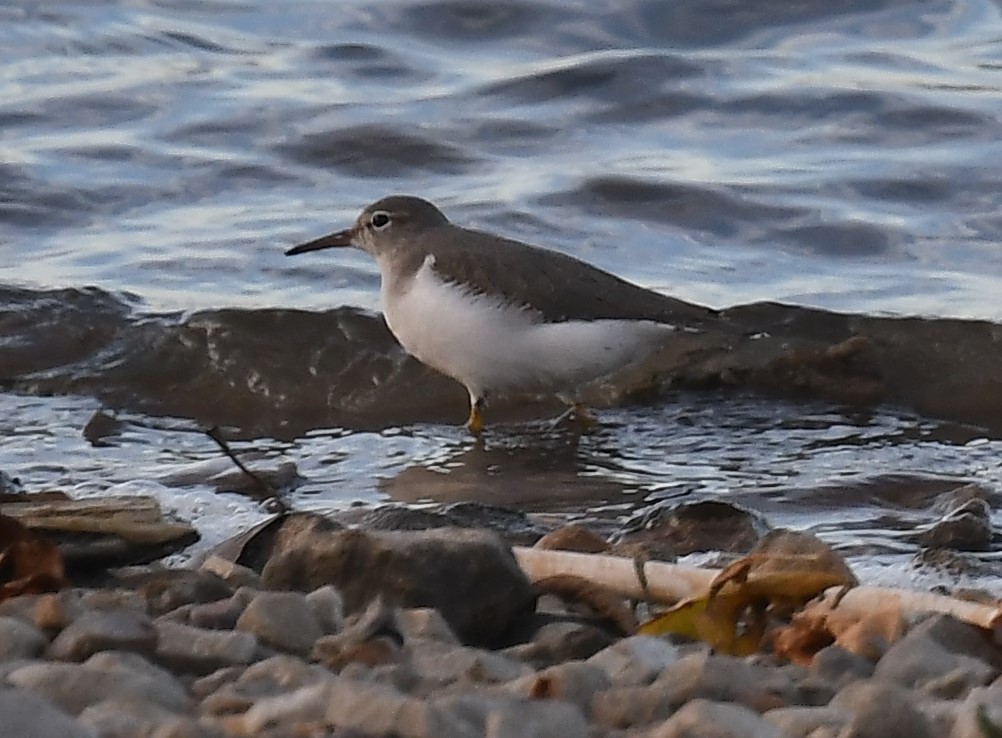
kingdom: Animalia
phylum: Chordata
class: Aves
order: Charadriiformes
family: Scolopacidae
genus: Actitis
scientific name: Actitis macularius
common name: Spotted sandpiper
